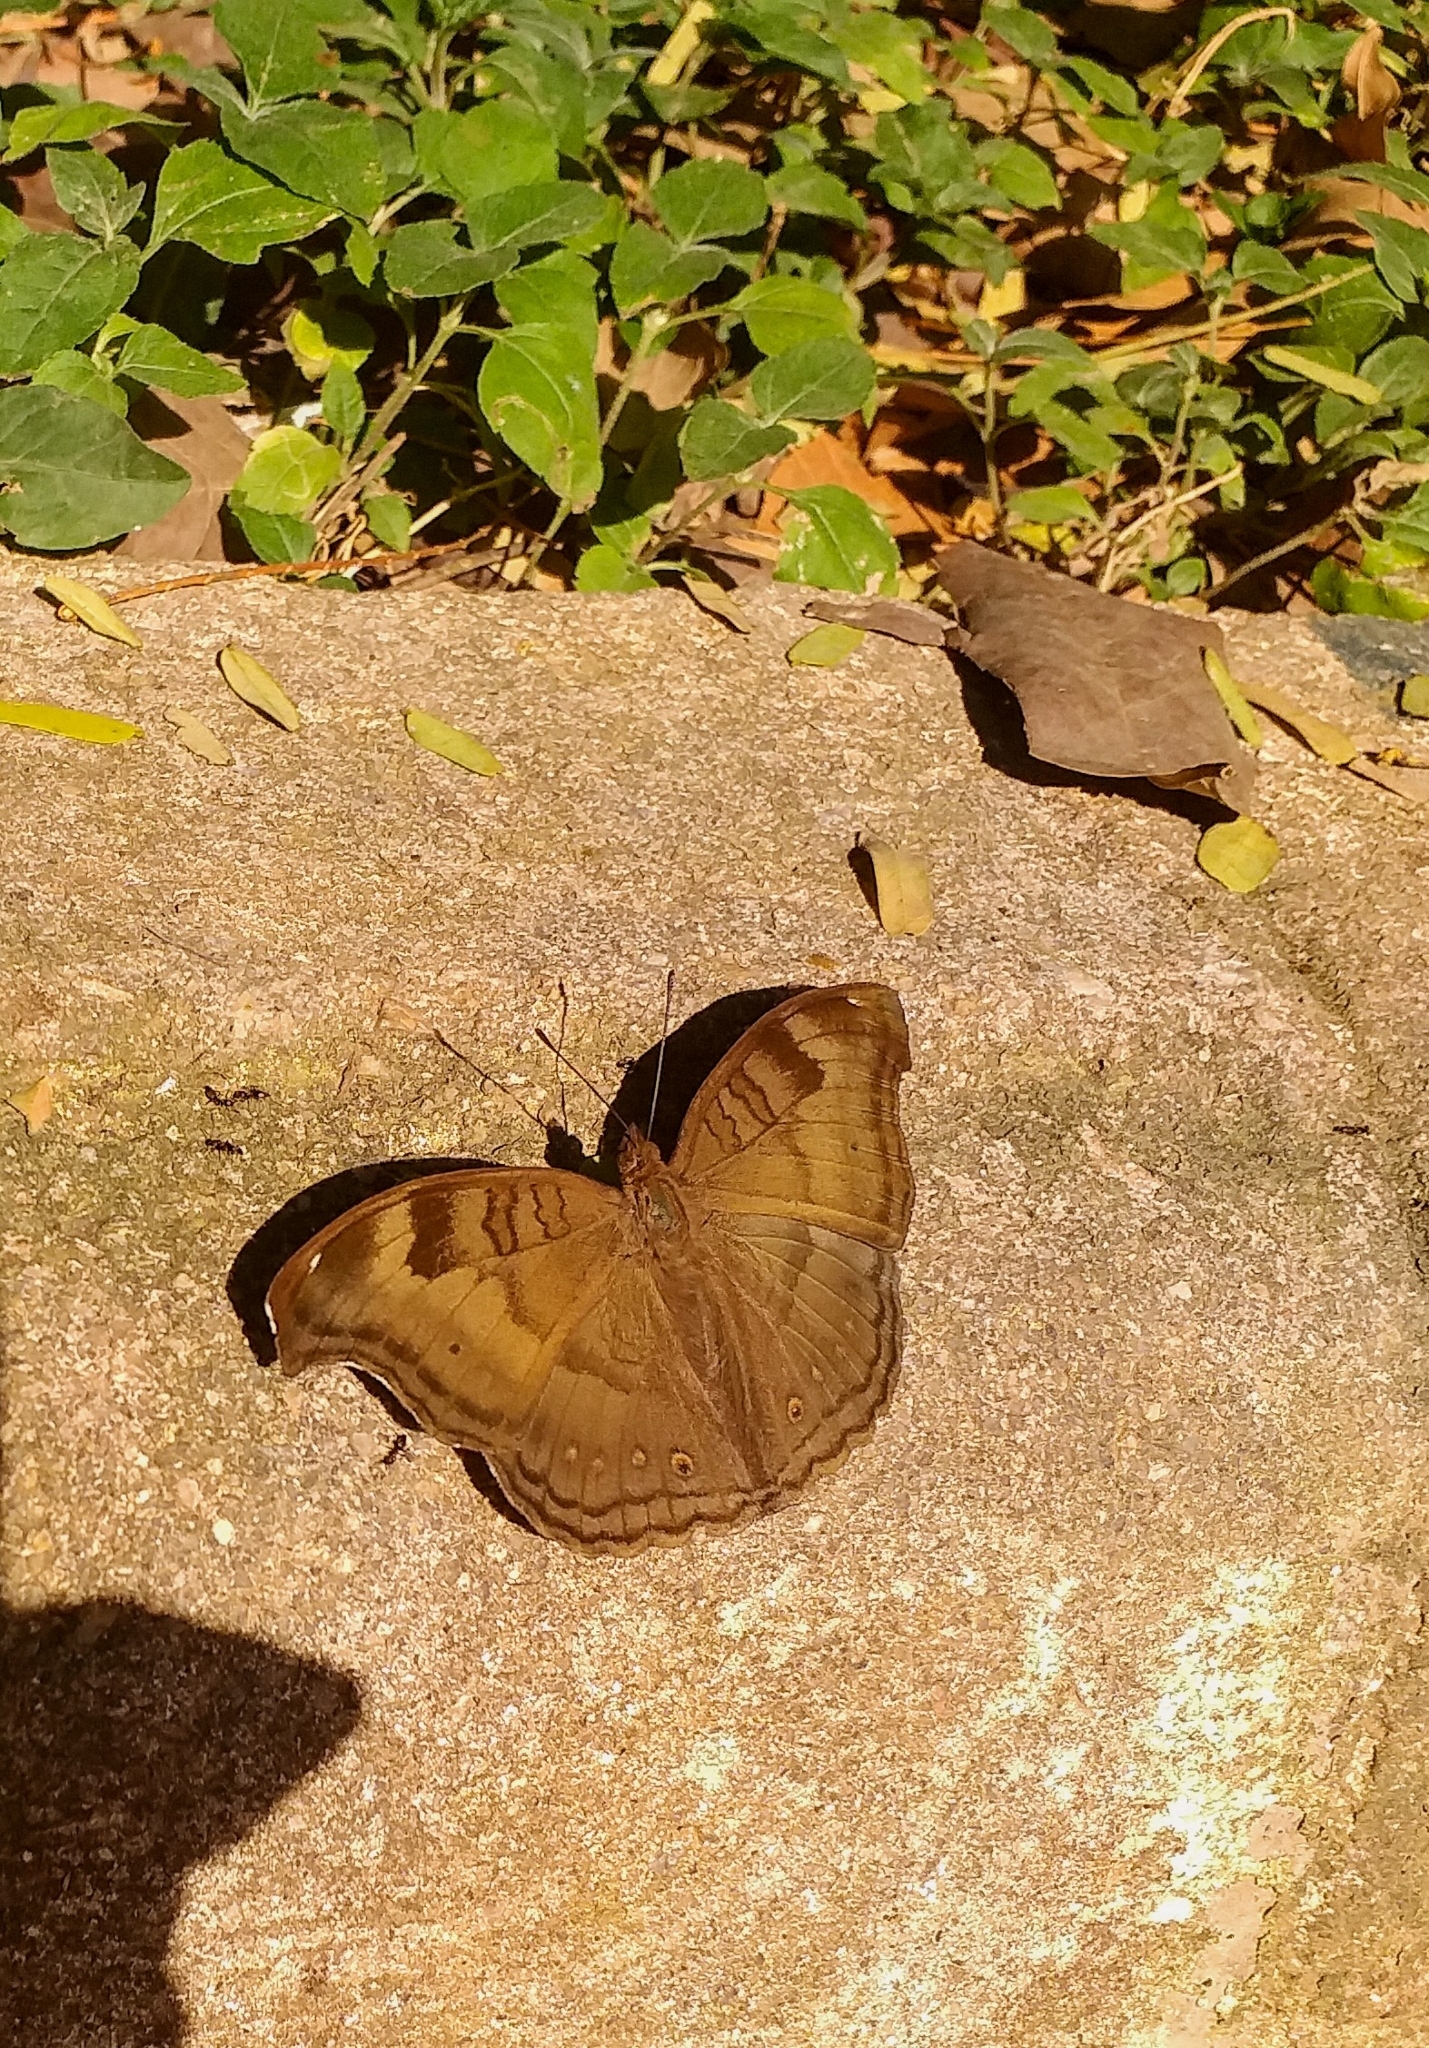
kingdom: Animalia
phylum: Arthropoda
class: Insecta
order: Lepidoptera
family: Nymphalidae
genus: Junonia
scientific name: Junonia iphita
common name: Chocolate pansy
